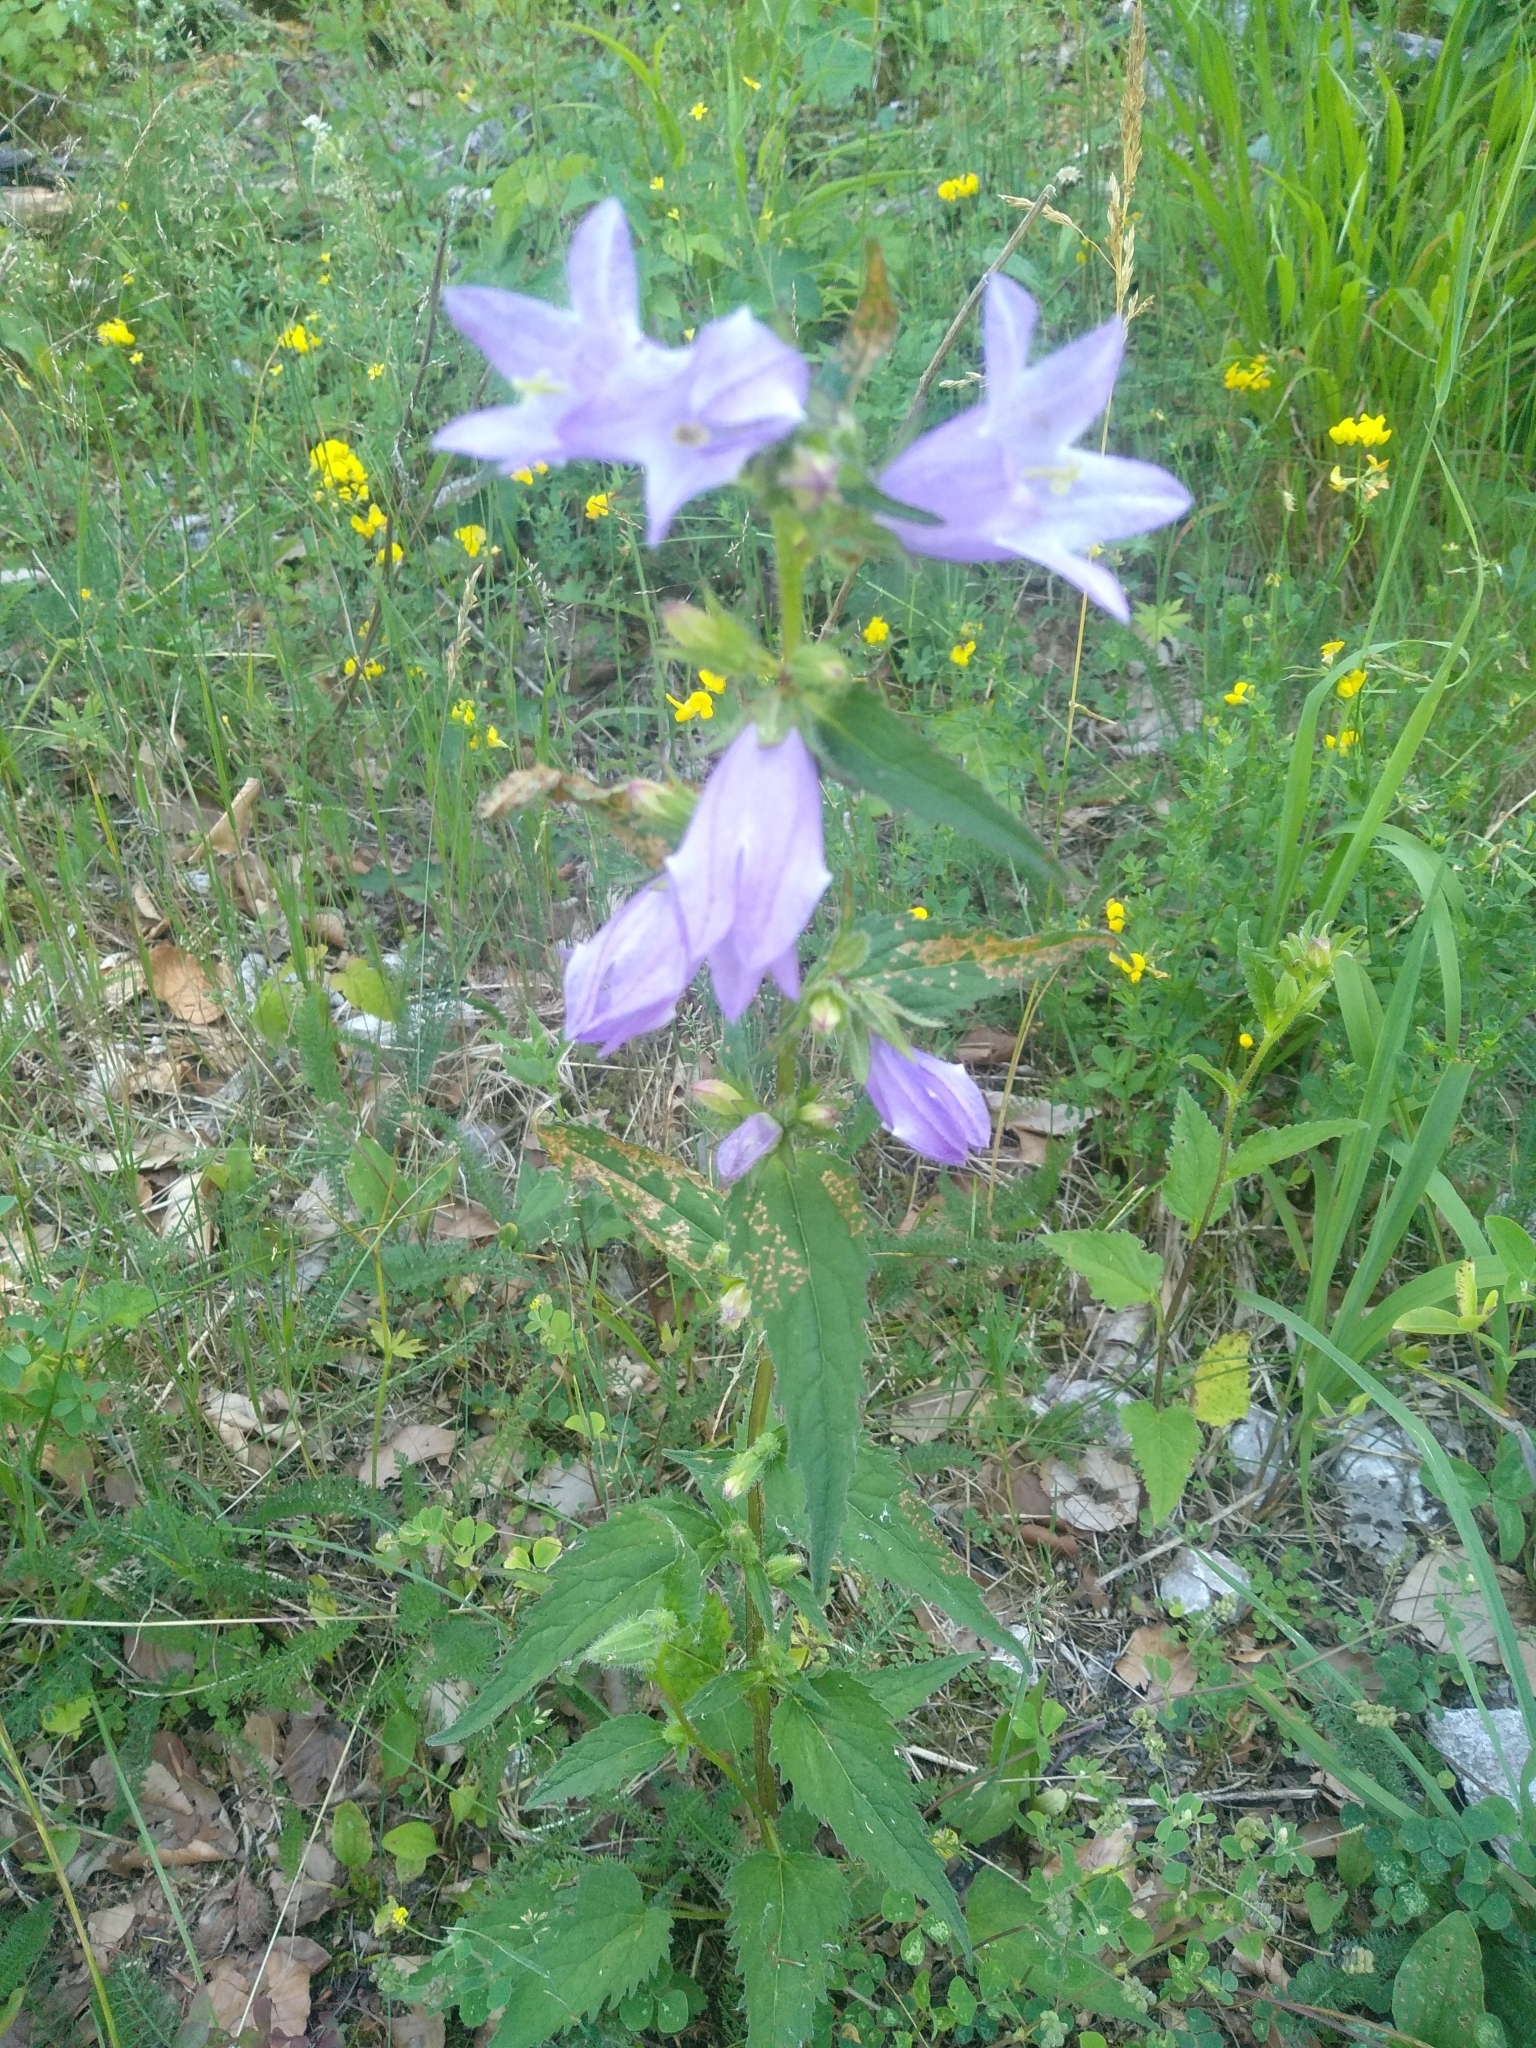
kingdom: Plantae
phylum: Tracheophyta
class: Magnoliopsida
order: Asterales
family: Campanulaceae
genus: Campanula
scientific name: Campanula trachelium
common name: Nettle-leaved bellflower
